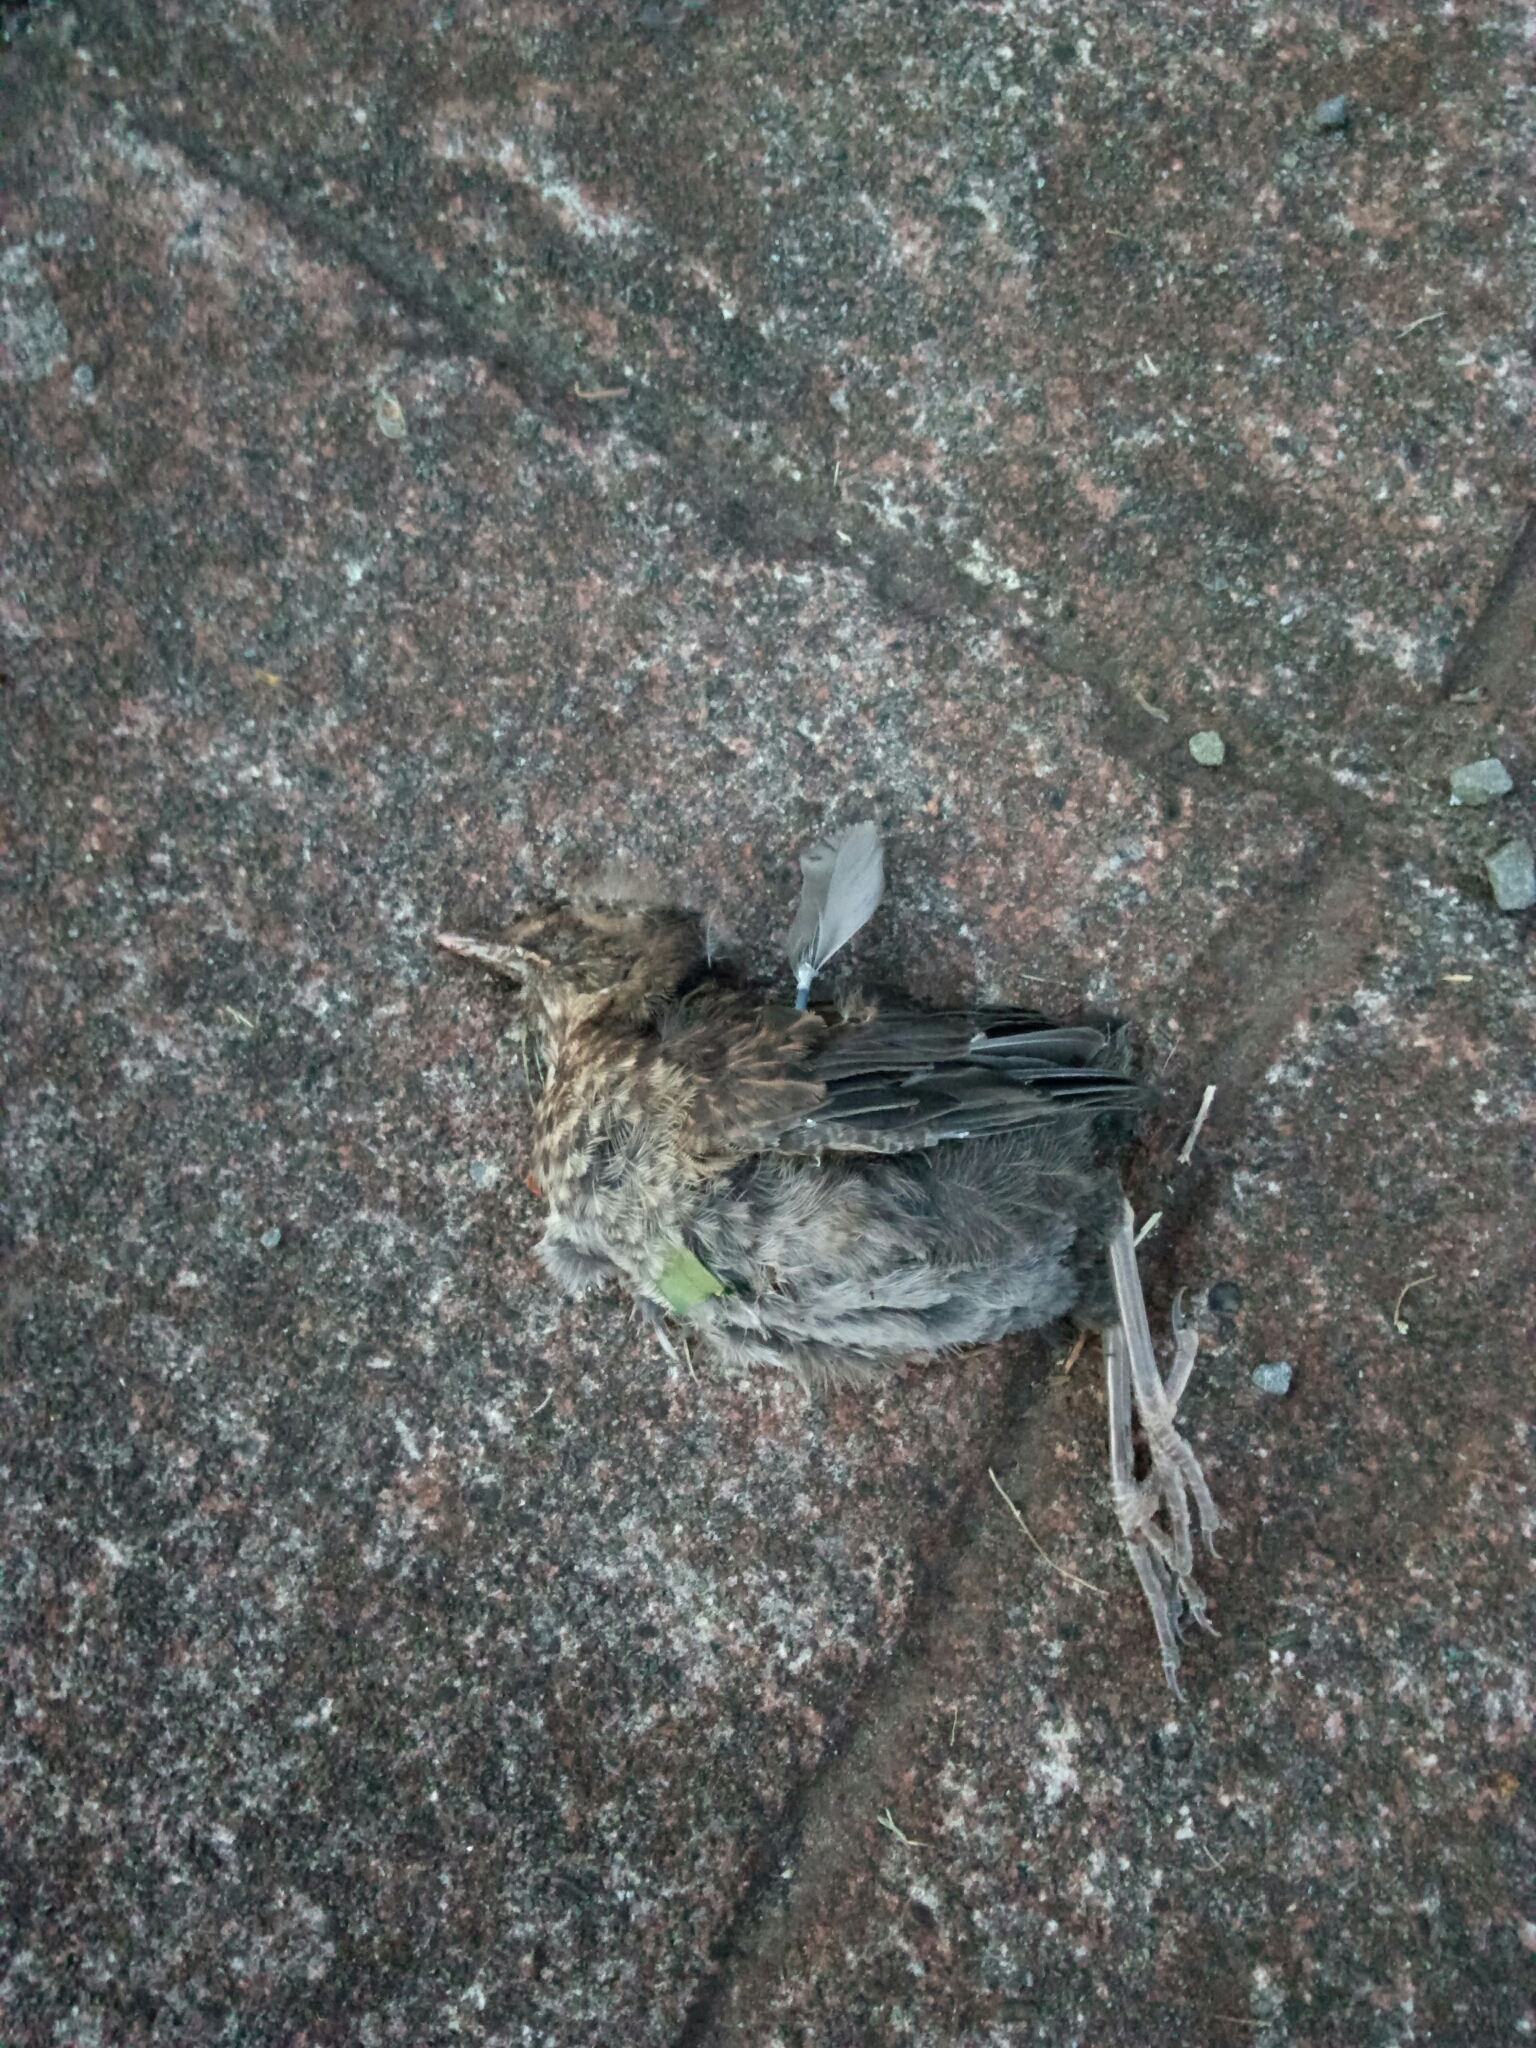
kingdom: Animalia
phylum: Chordata
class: Aves
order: Passeriformes
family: Turdidae
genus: Turdus
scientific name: Turdus philomelos
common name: Song thrush
